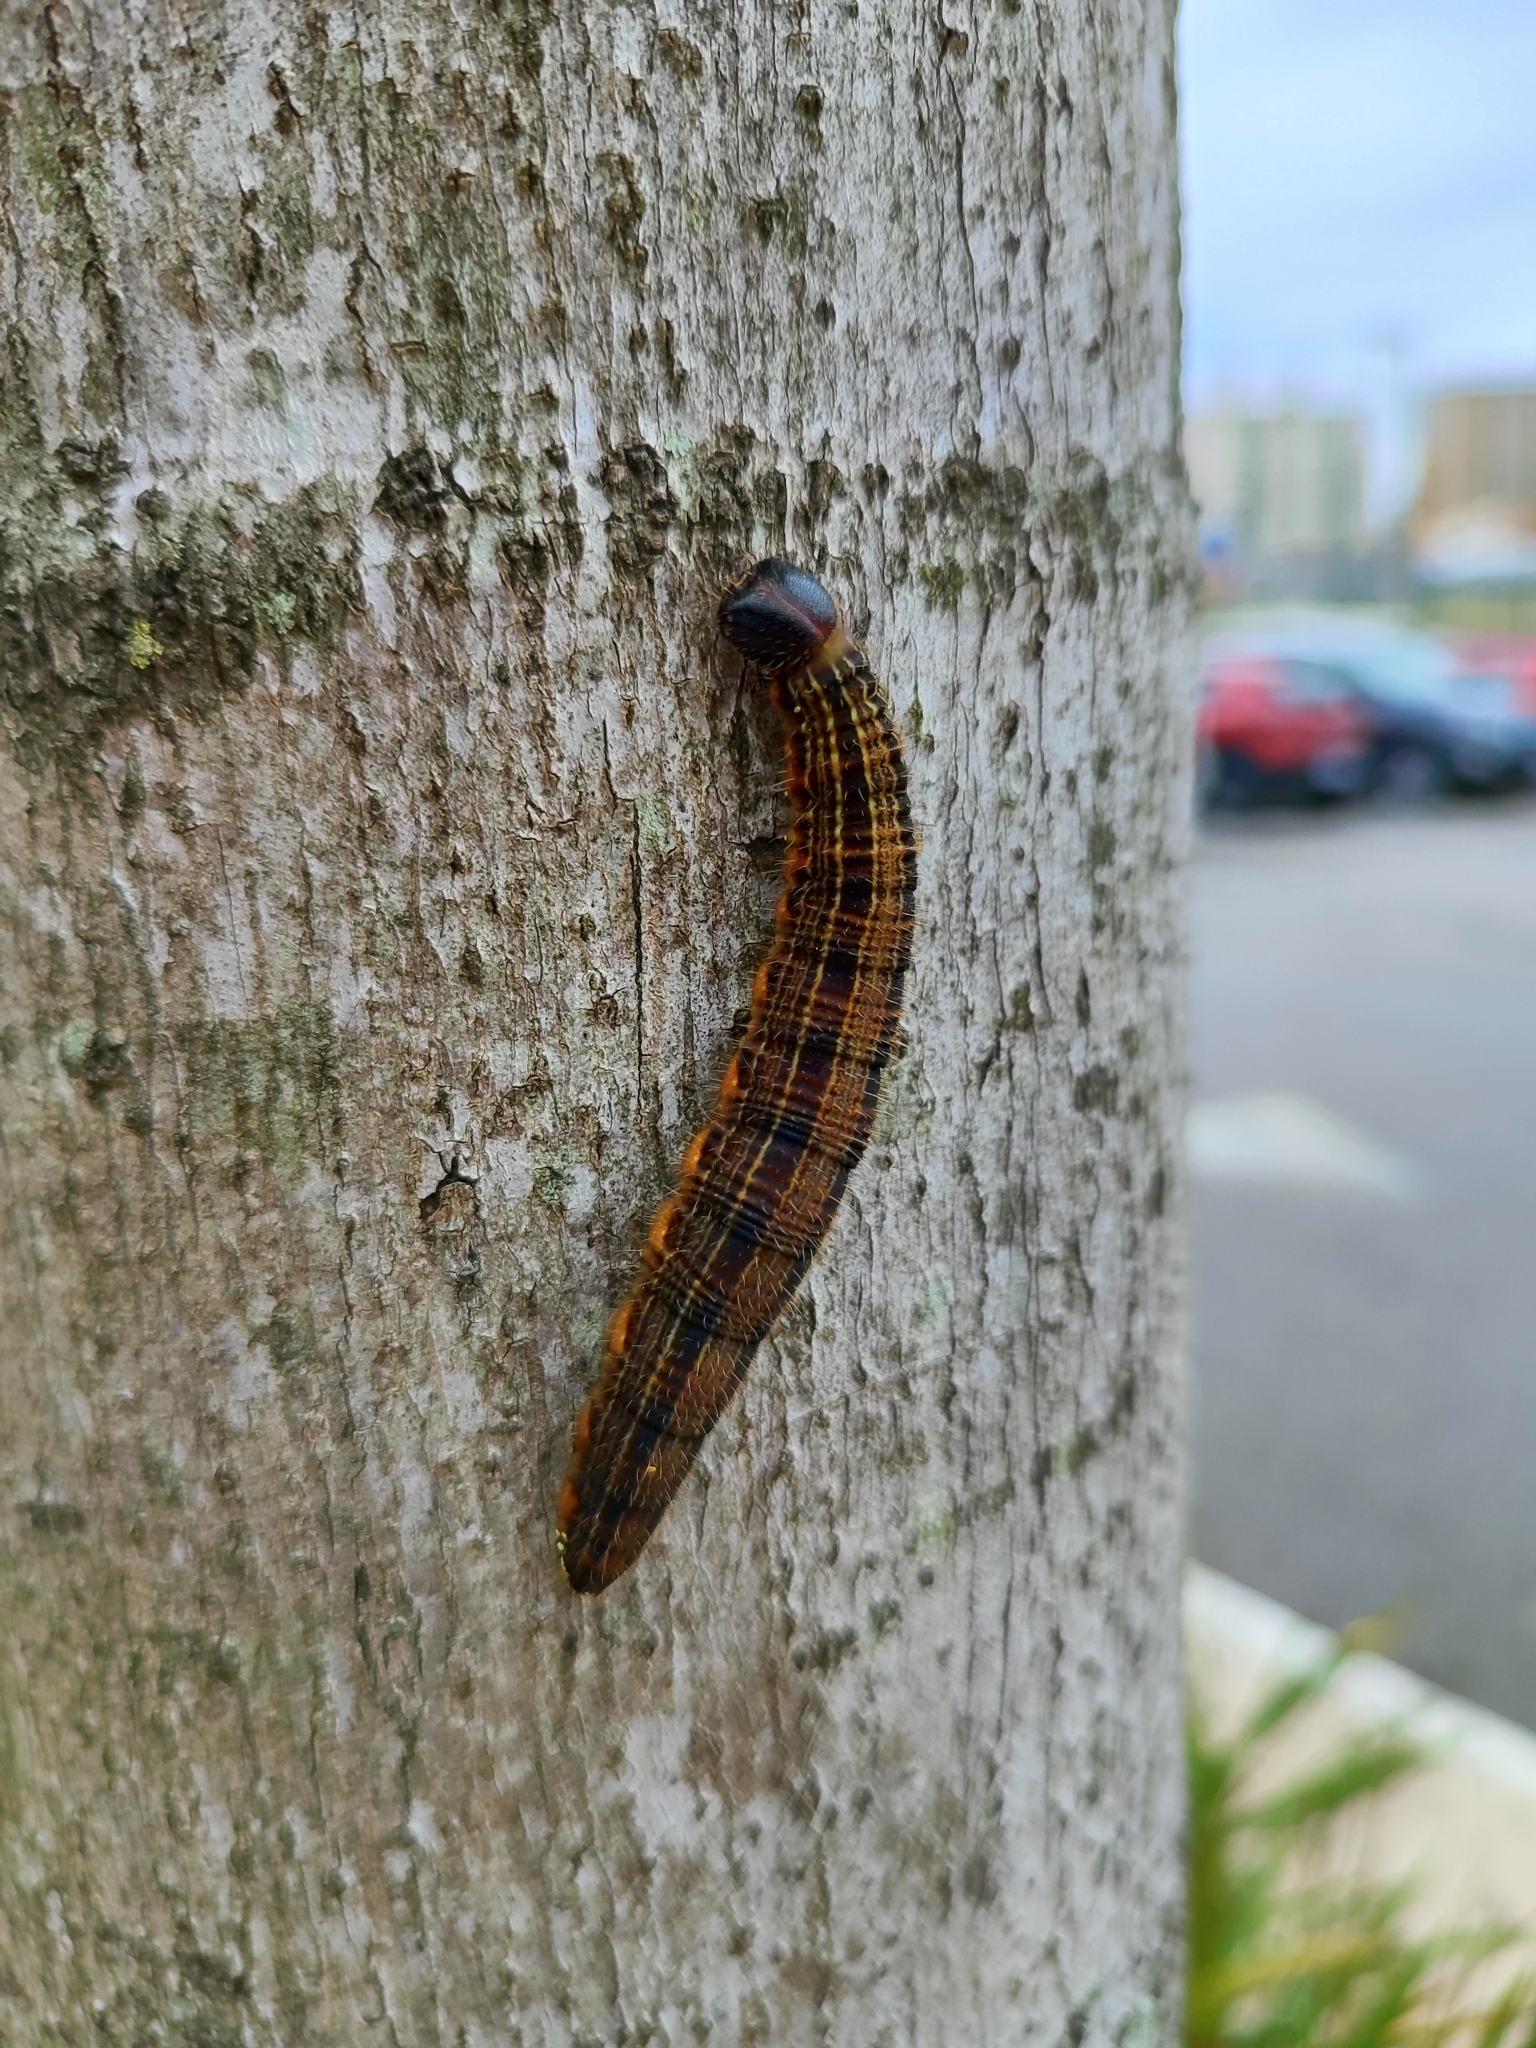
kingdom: Animalia
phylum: Arthropoda
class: Insecta
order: Lepidoptera
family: Nymphalidae
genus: Brassolis
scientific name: Brassolis sophorae
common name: Coconut caterpillar
